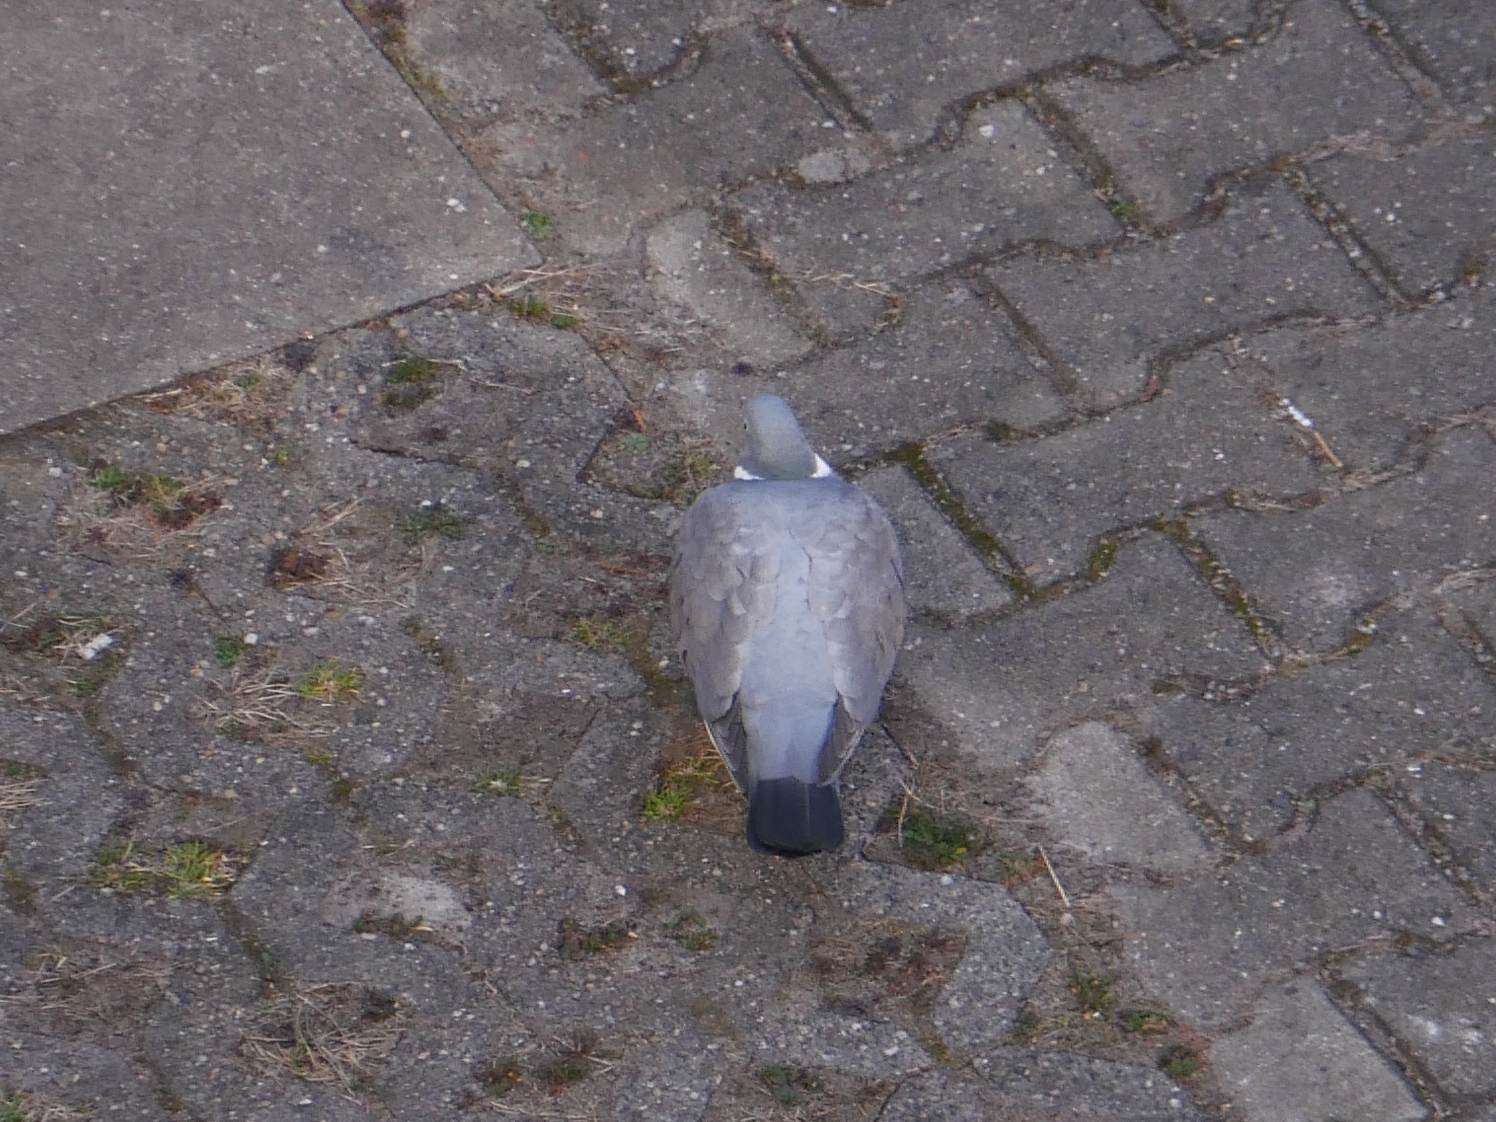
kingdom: Animalia
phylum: Chordata
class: Aves
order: Columbiformes
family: Columbidae
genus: Columba
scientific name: Columba palumbus
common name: Common wood pigeon
